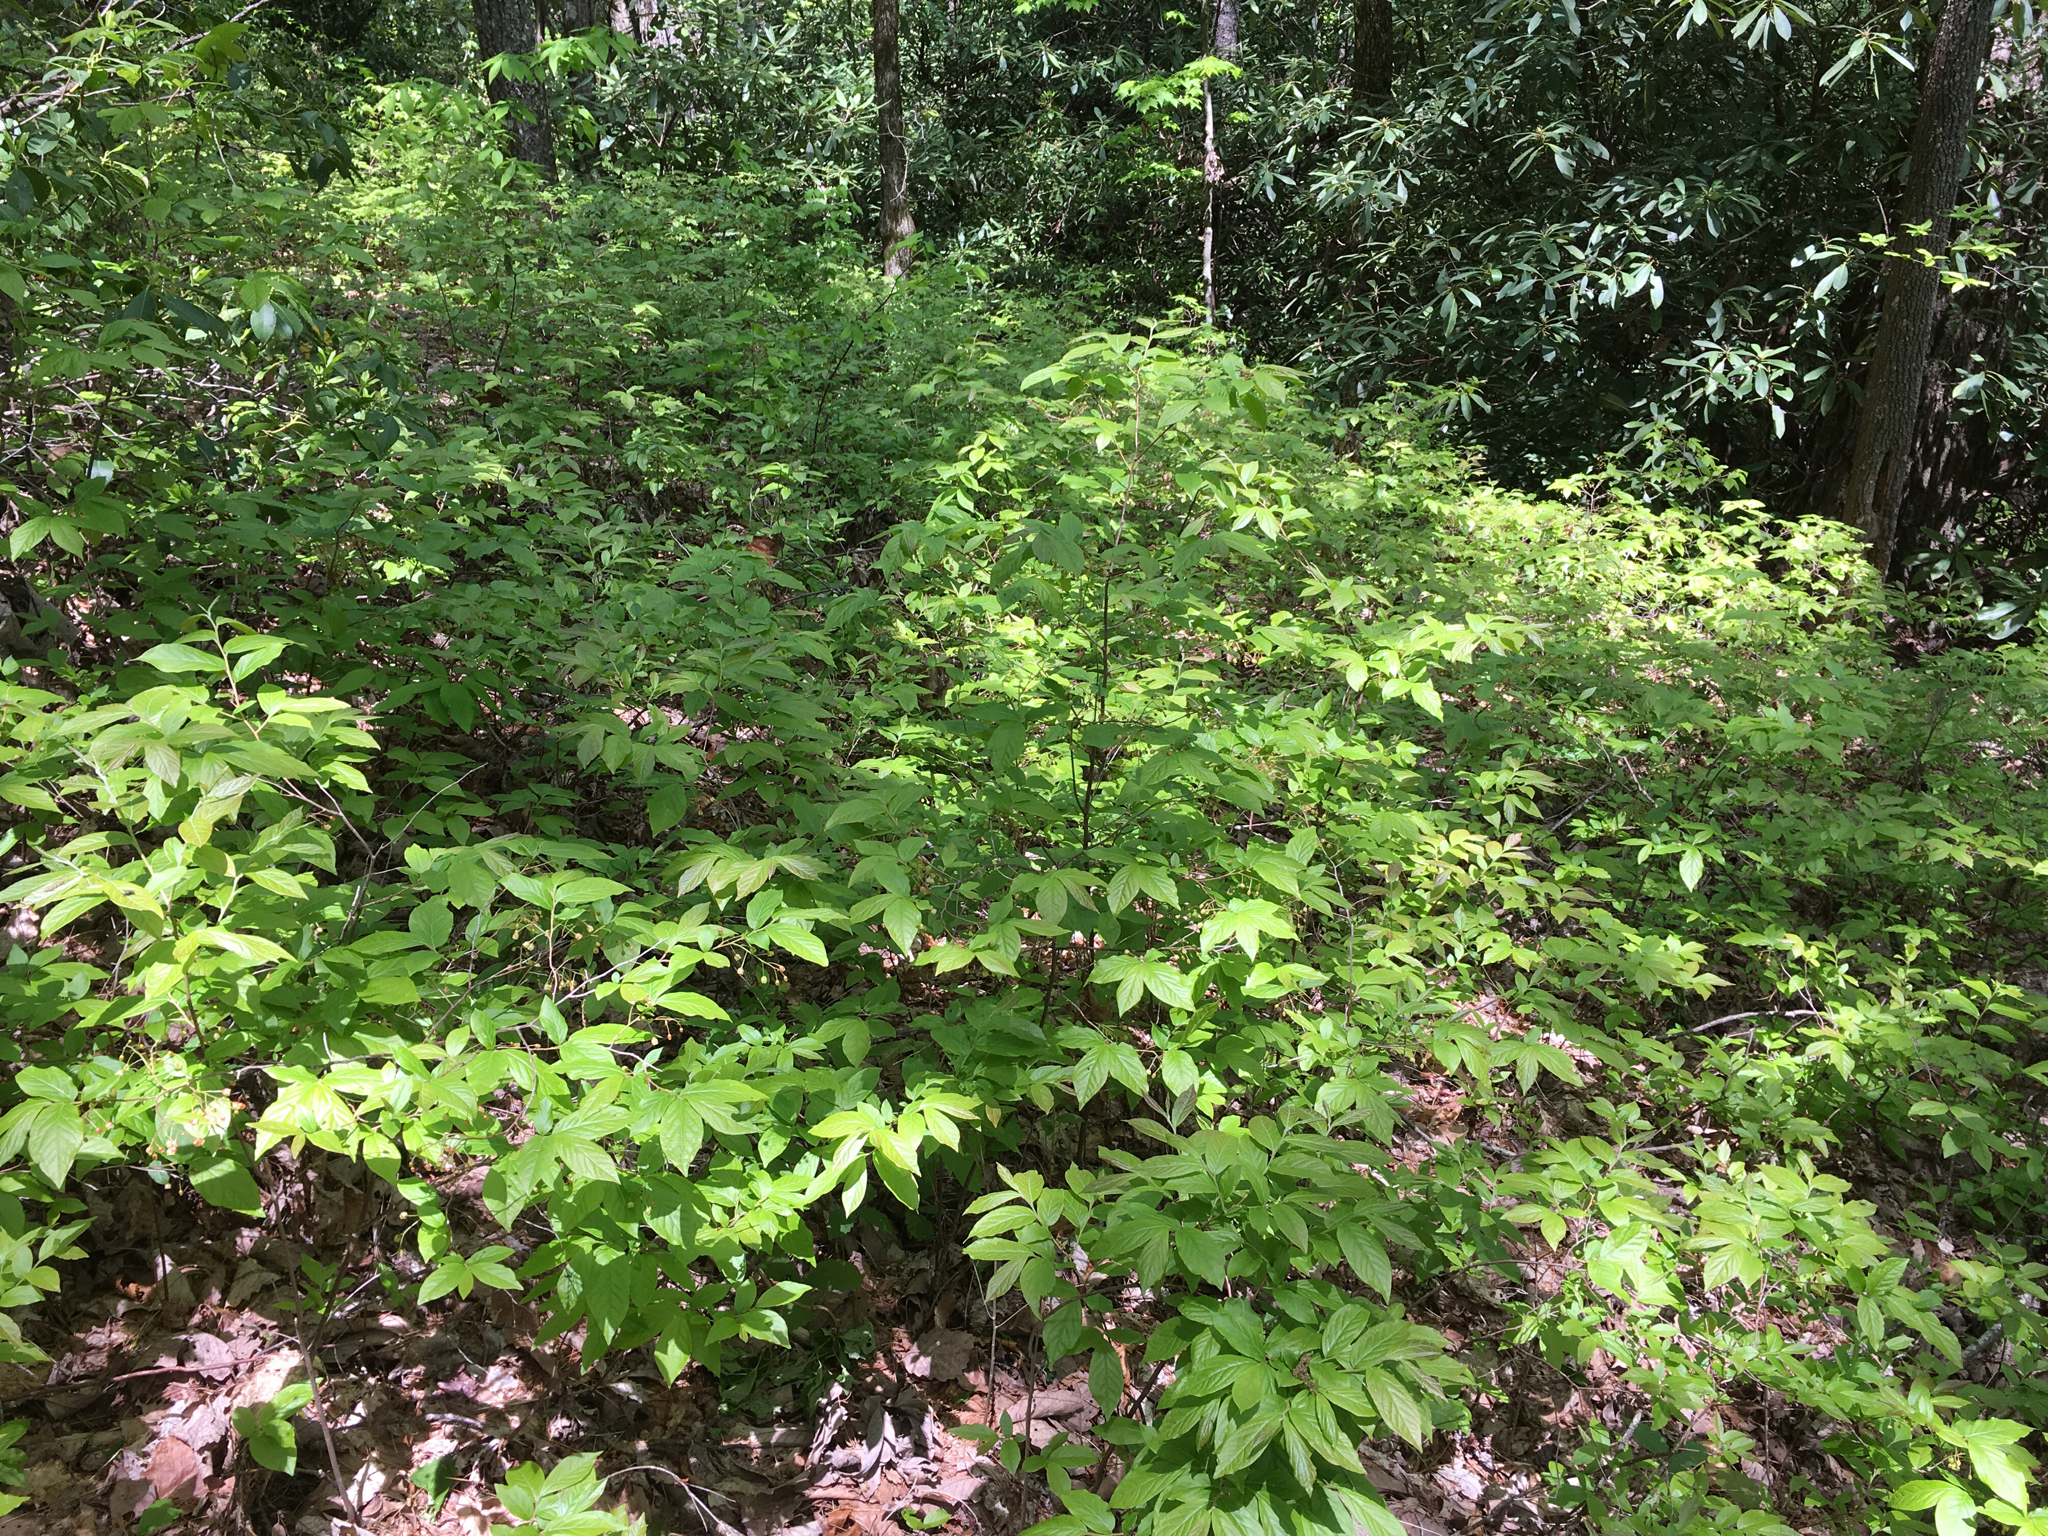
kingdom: Plantae
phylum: Tracheophyta
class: Magnoliopsida
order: Ericales
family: Ericaceae
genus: Gaylussacia
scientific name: Gaylussacia ursina
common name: Bear huckleberry
